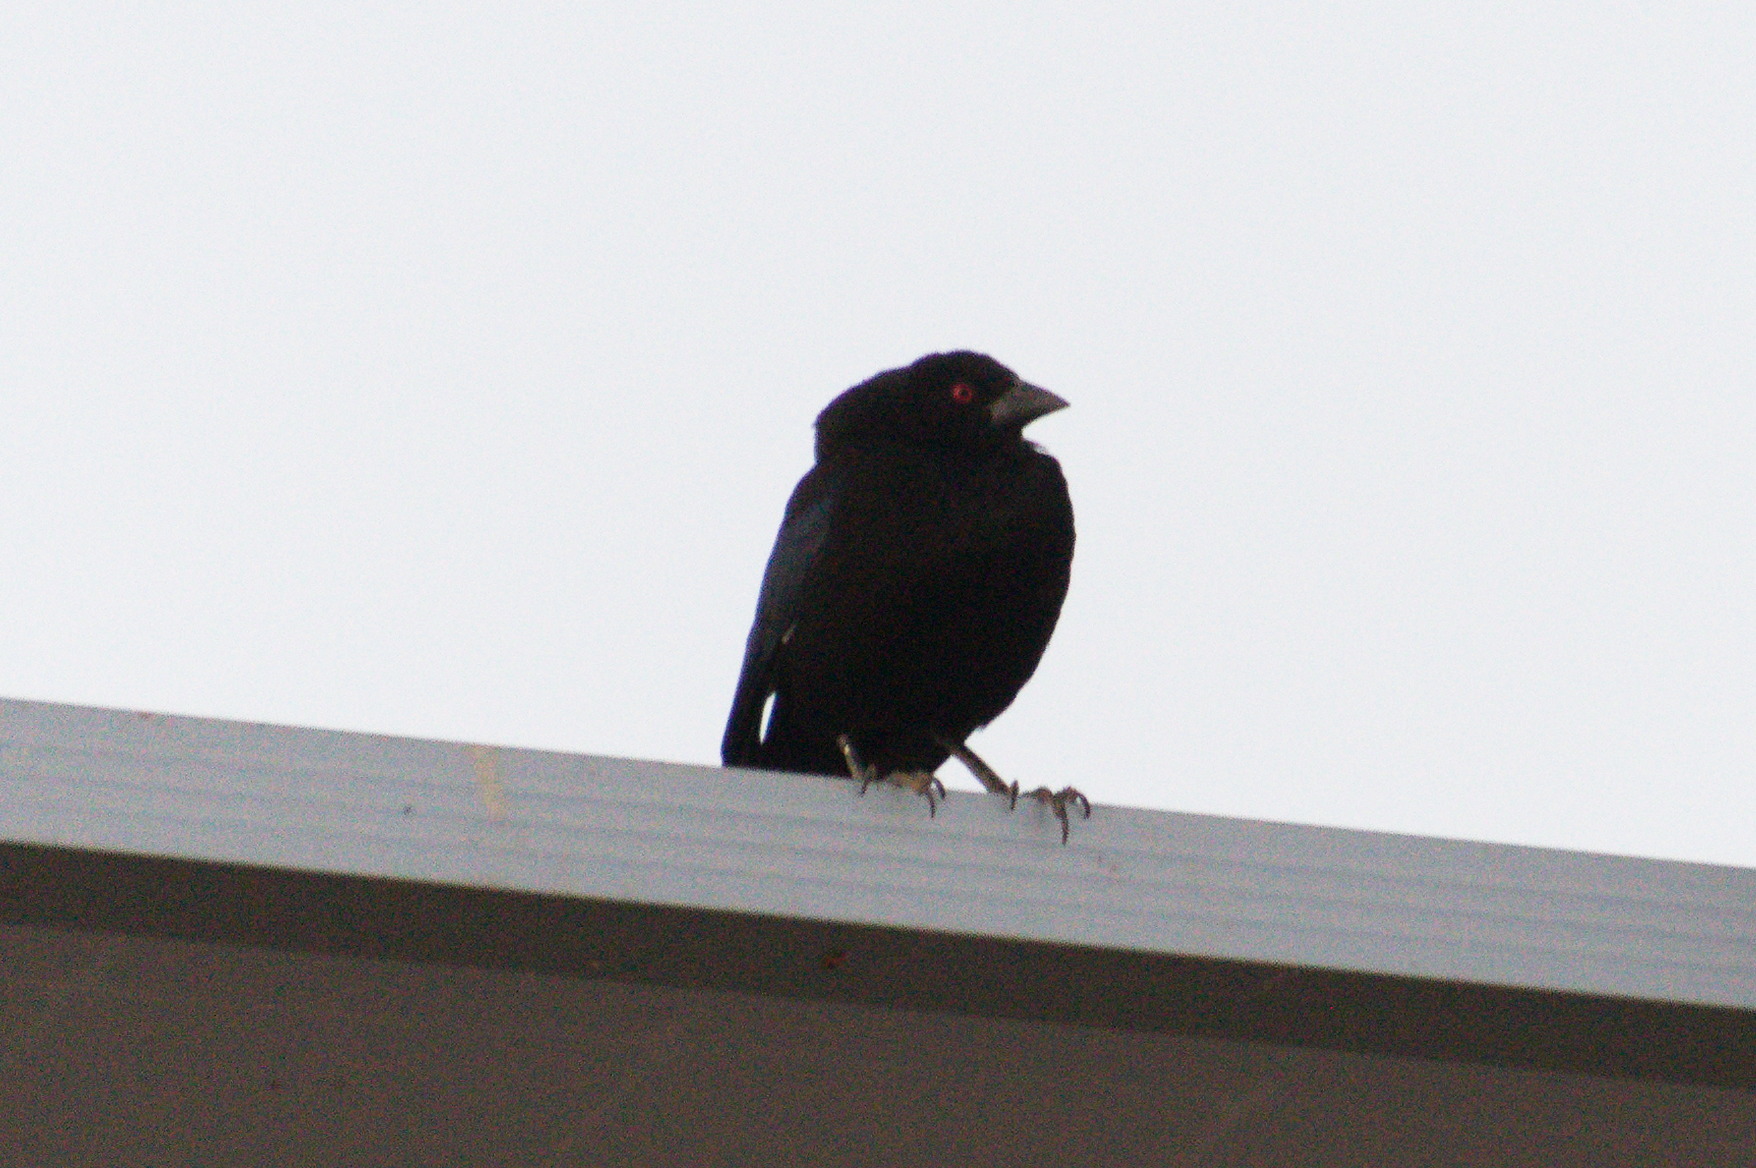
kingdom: Animalia
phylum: Chordata
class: Aves
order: Passeriformes
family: Icteridae
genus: Molothrus
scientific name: Molothrus aeneus
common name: Bronzed cowbird
